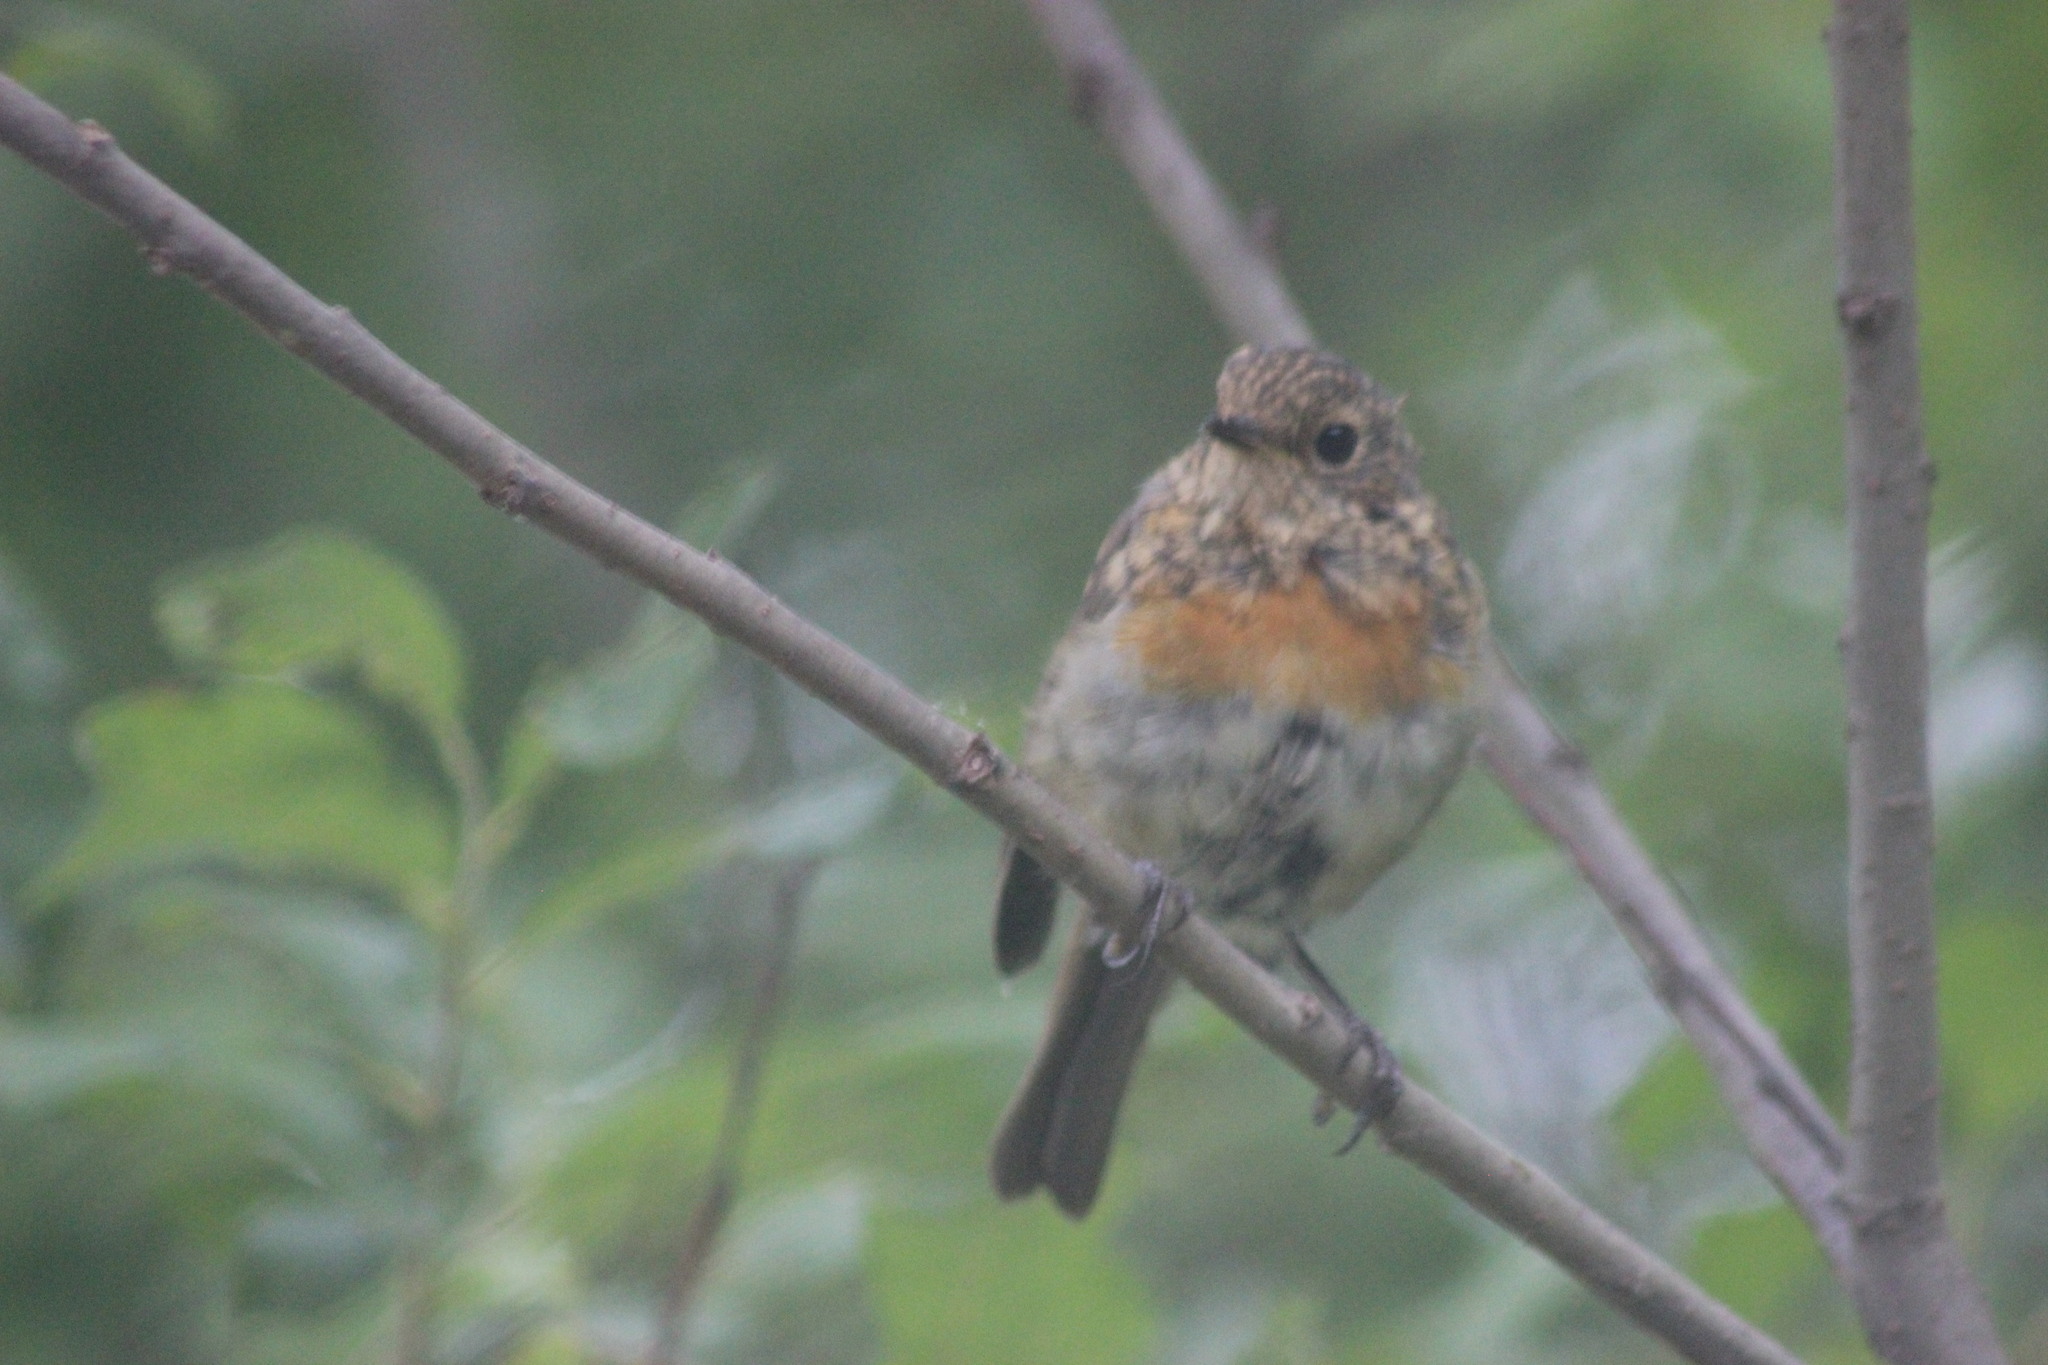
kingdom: Animalia
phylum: Chordata
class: Aves
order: Passeriformes
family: Muscicapidae
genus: Erithacus
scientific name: Erithacus rubecula
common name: European robin
